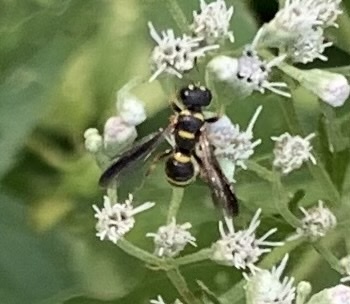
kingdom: Animalia
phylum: Arthropoda
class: Insecta
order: Hymenoptera
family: Crabronidae
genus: Cerceris
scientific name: Cerceris insolita
